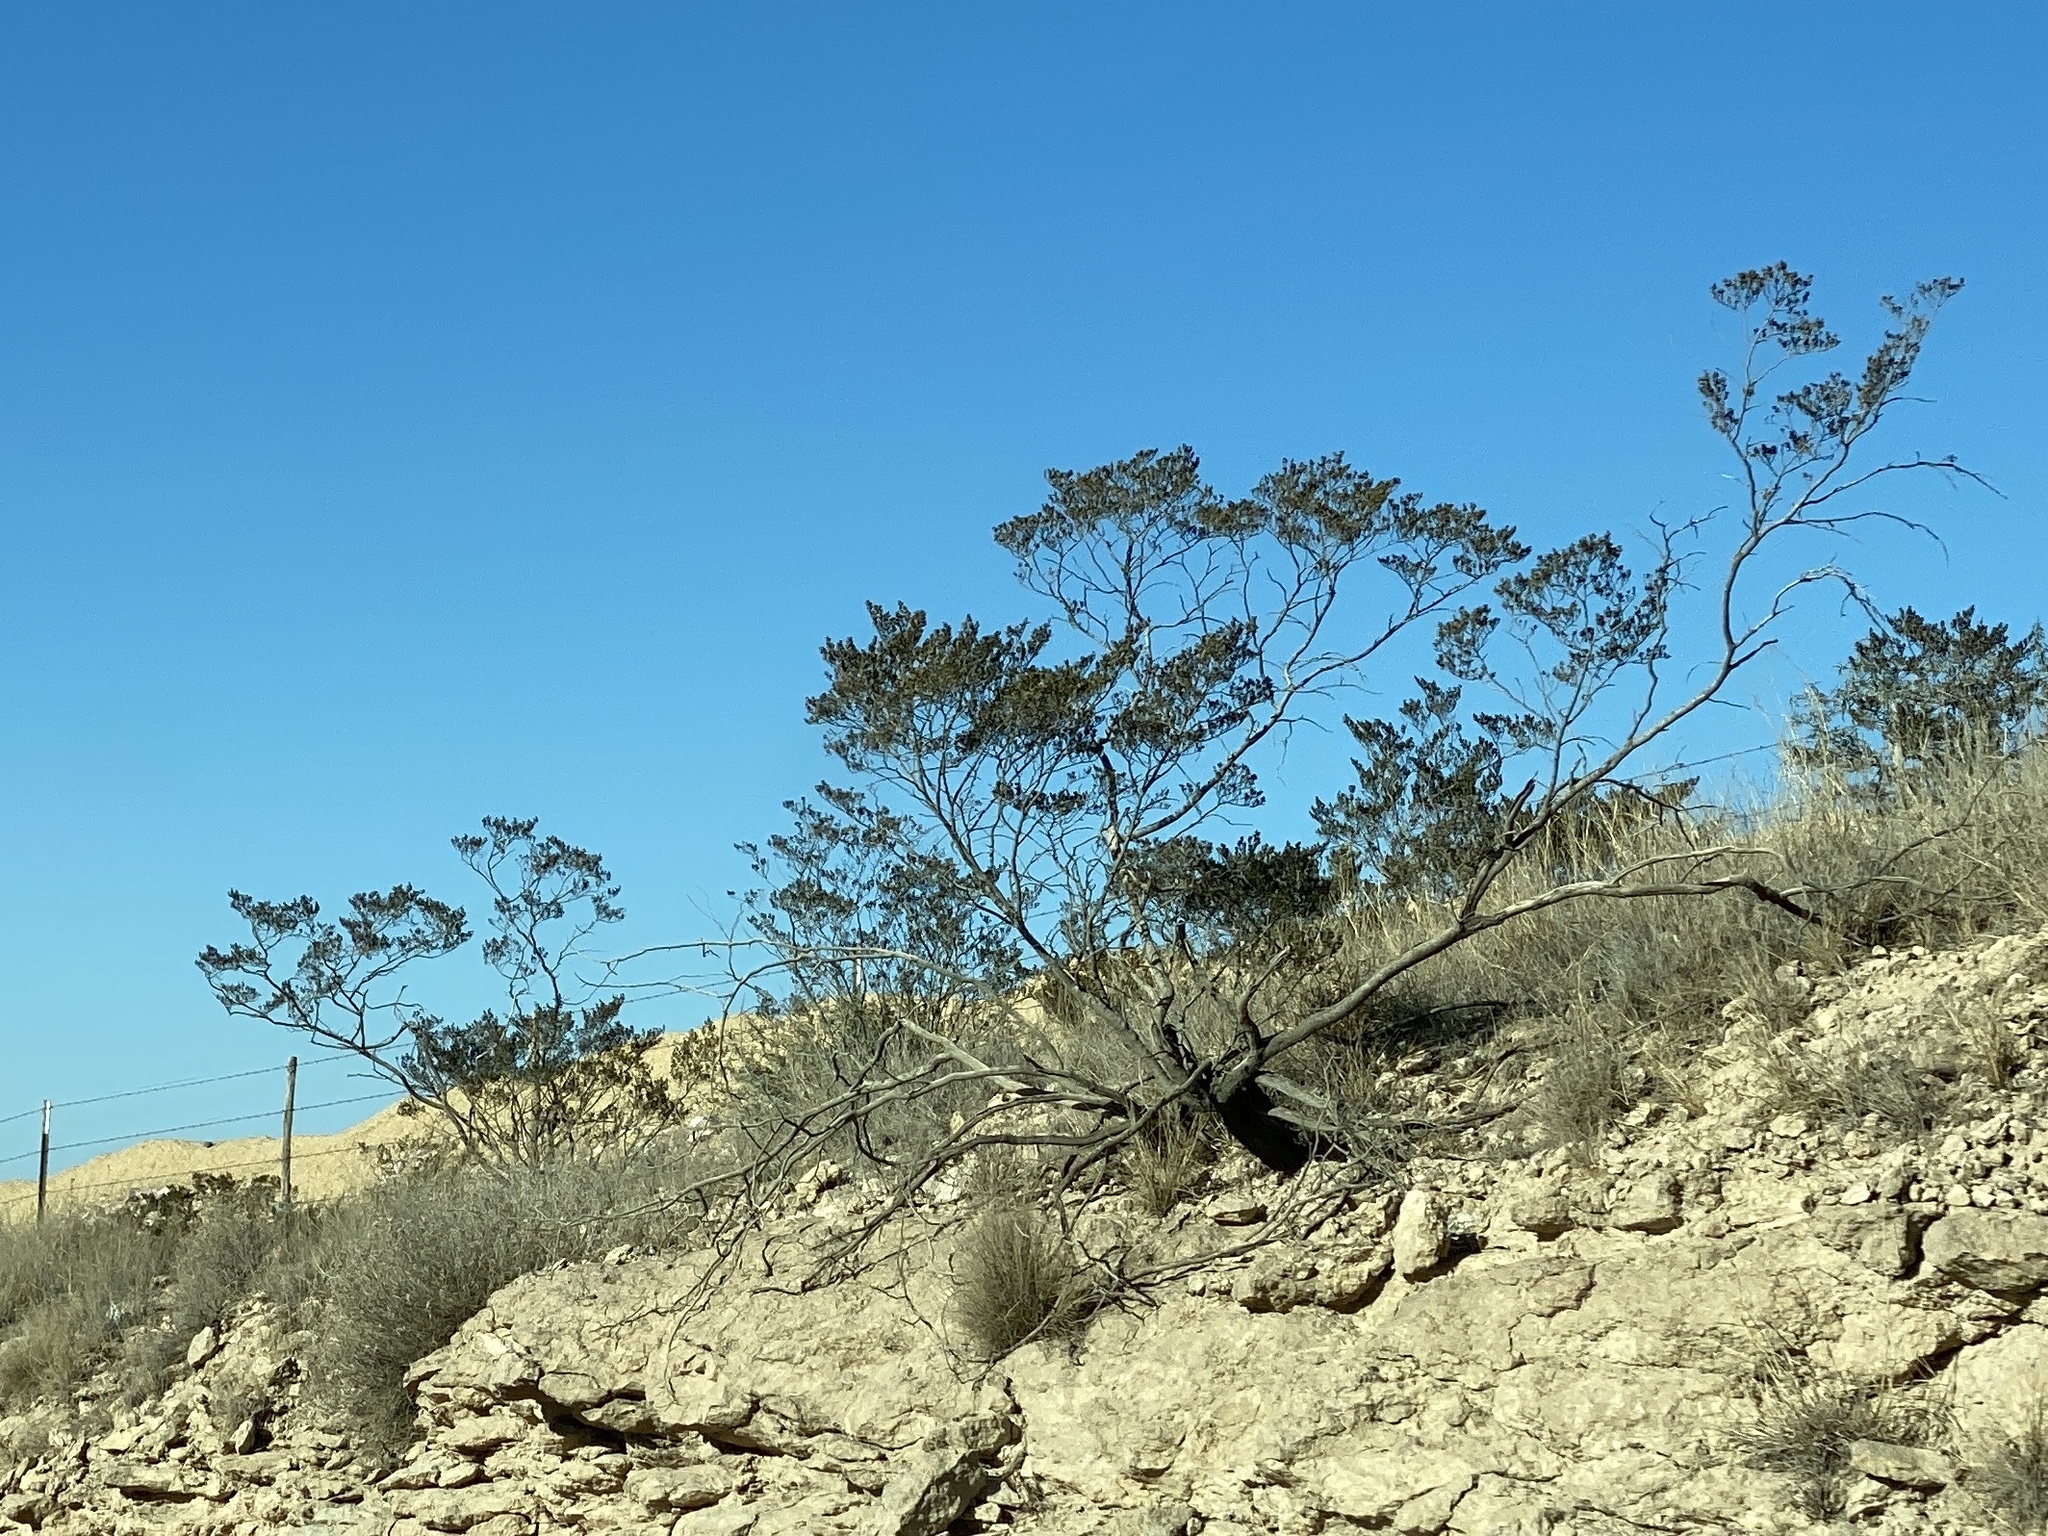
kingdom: Plantae
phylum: Tracheophyta
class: Magnoliopsida
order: Zygophyllales
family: Zygophyllaceae
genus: Larrea
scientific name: Larrea tridentata
